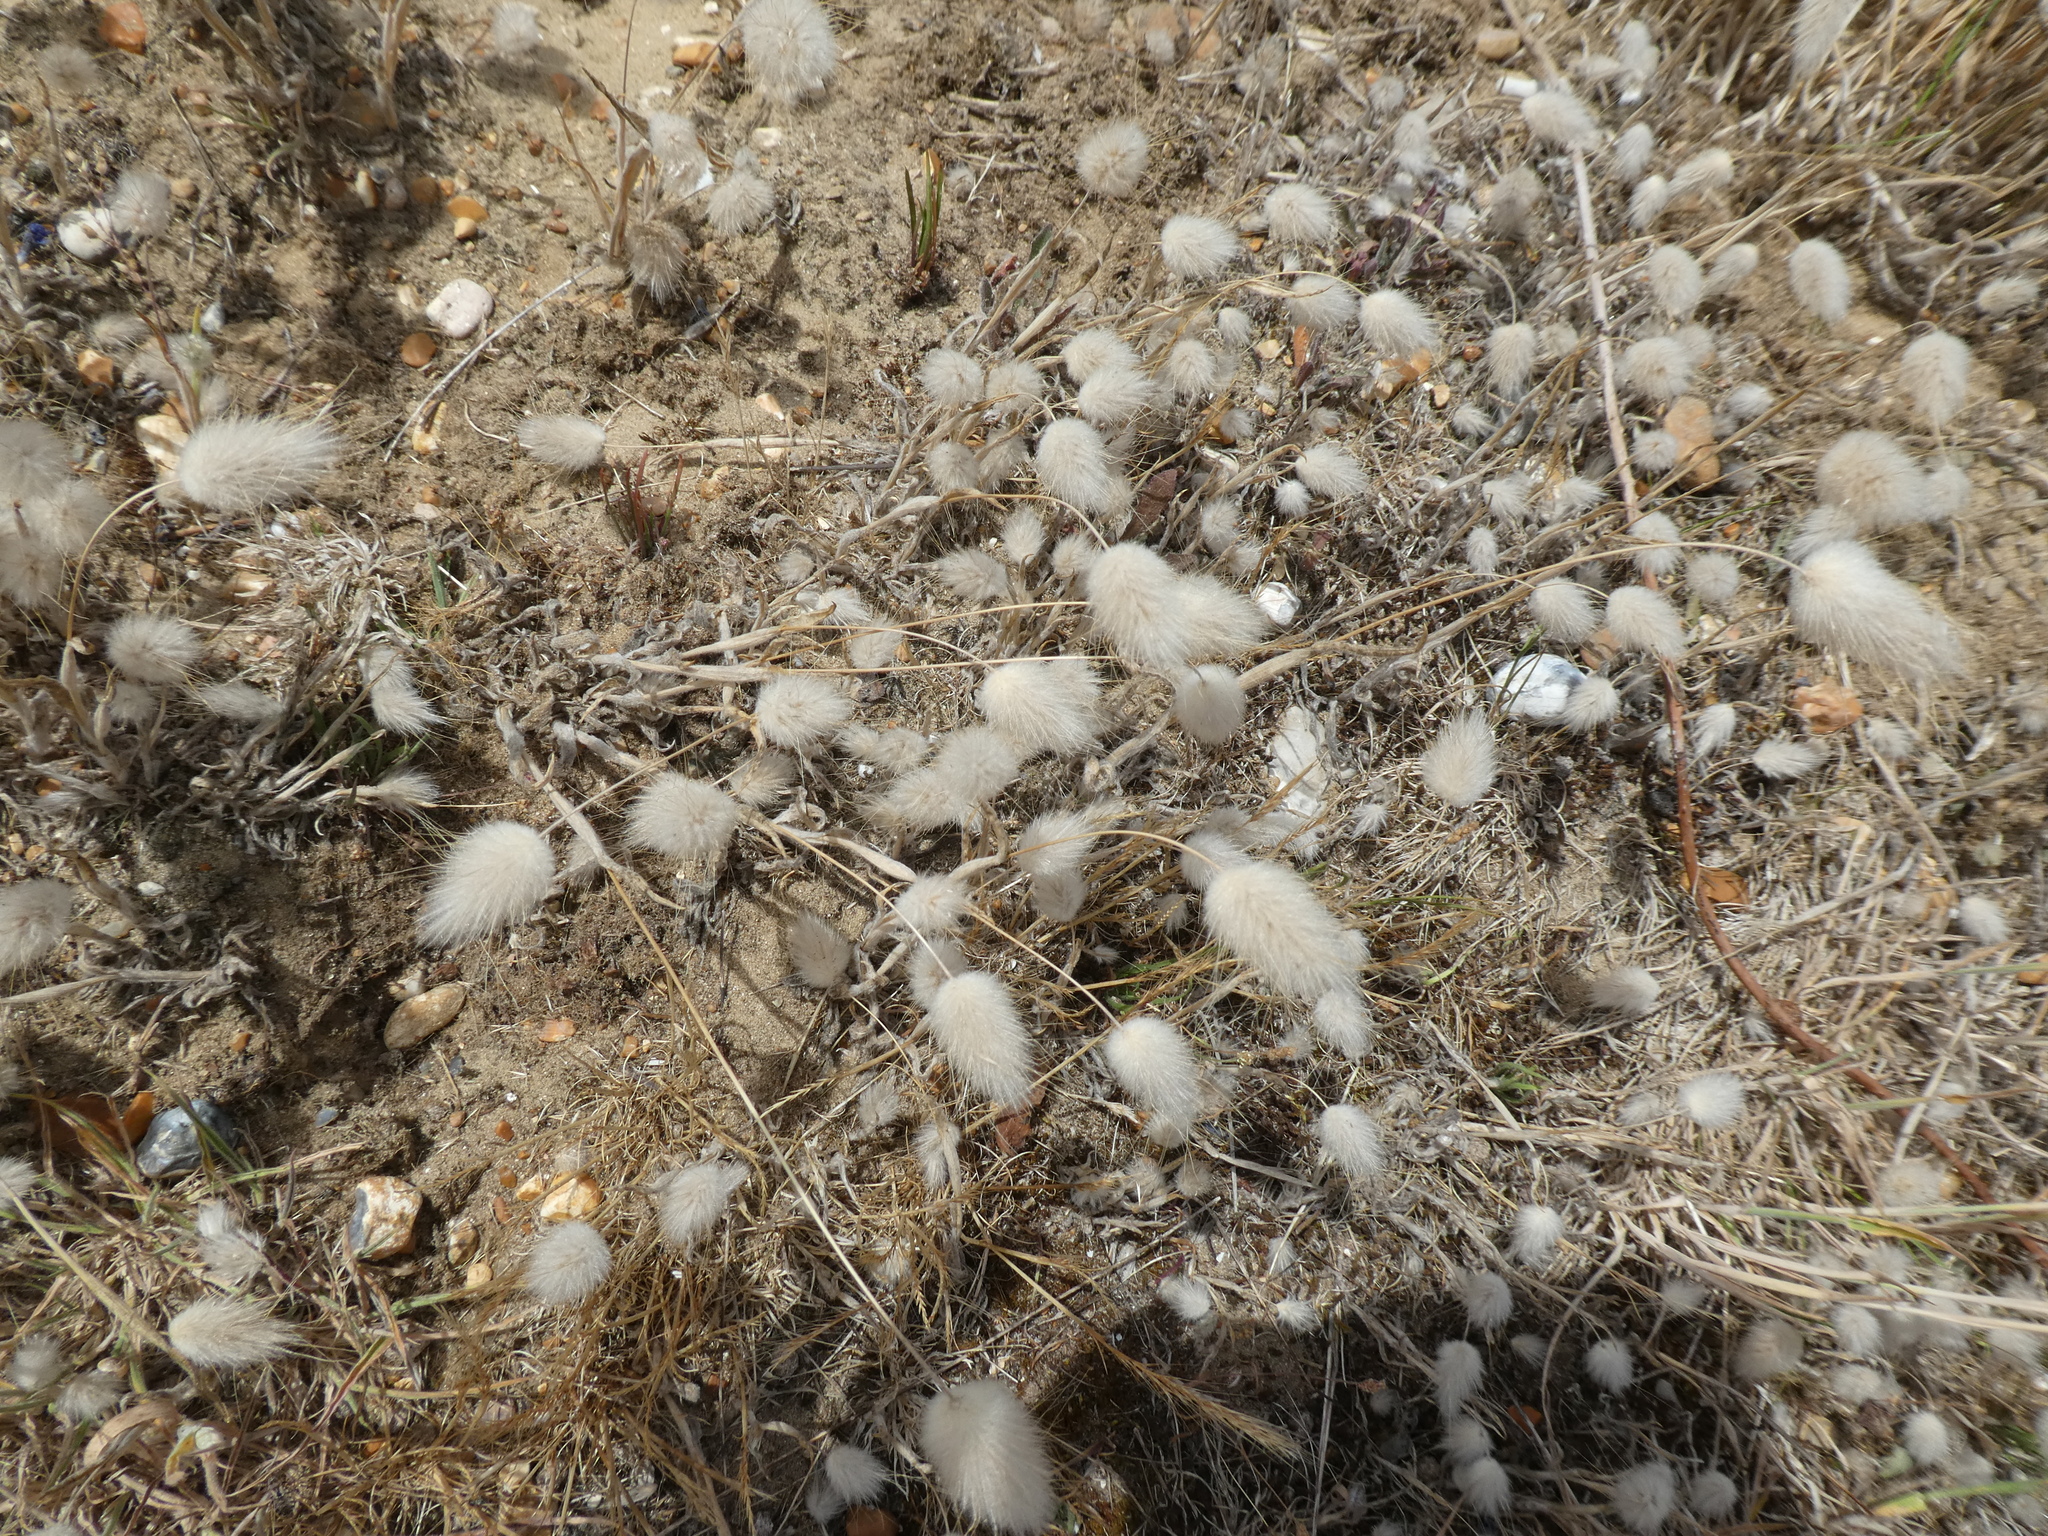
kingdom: Plantae
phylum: Tracheophyta
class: Liliopsida
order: Poales
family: Poaceae
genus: Lagurus
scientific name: Lagurus ovatus
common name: Hare's-tail
